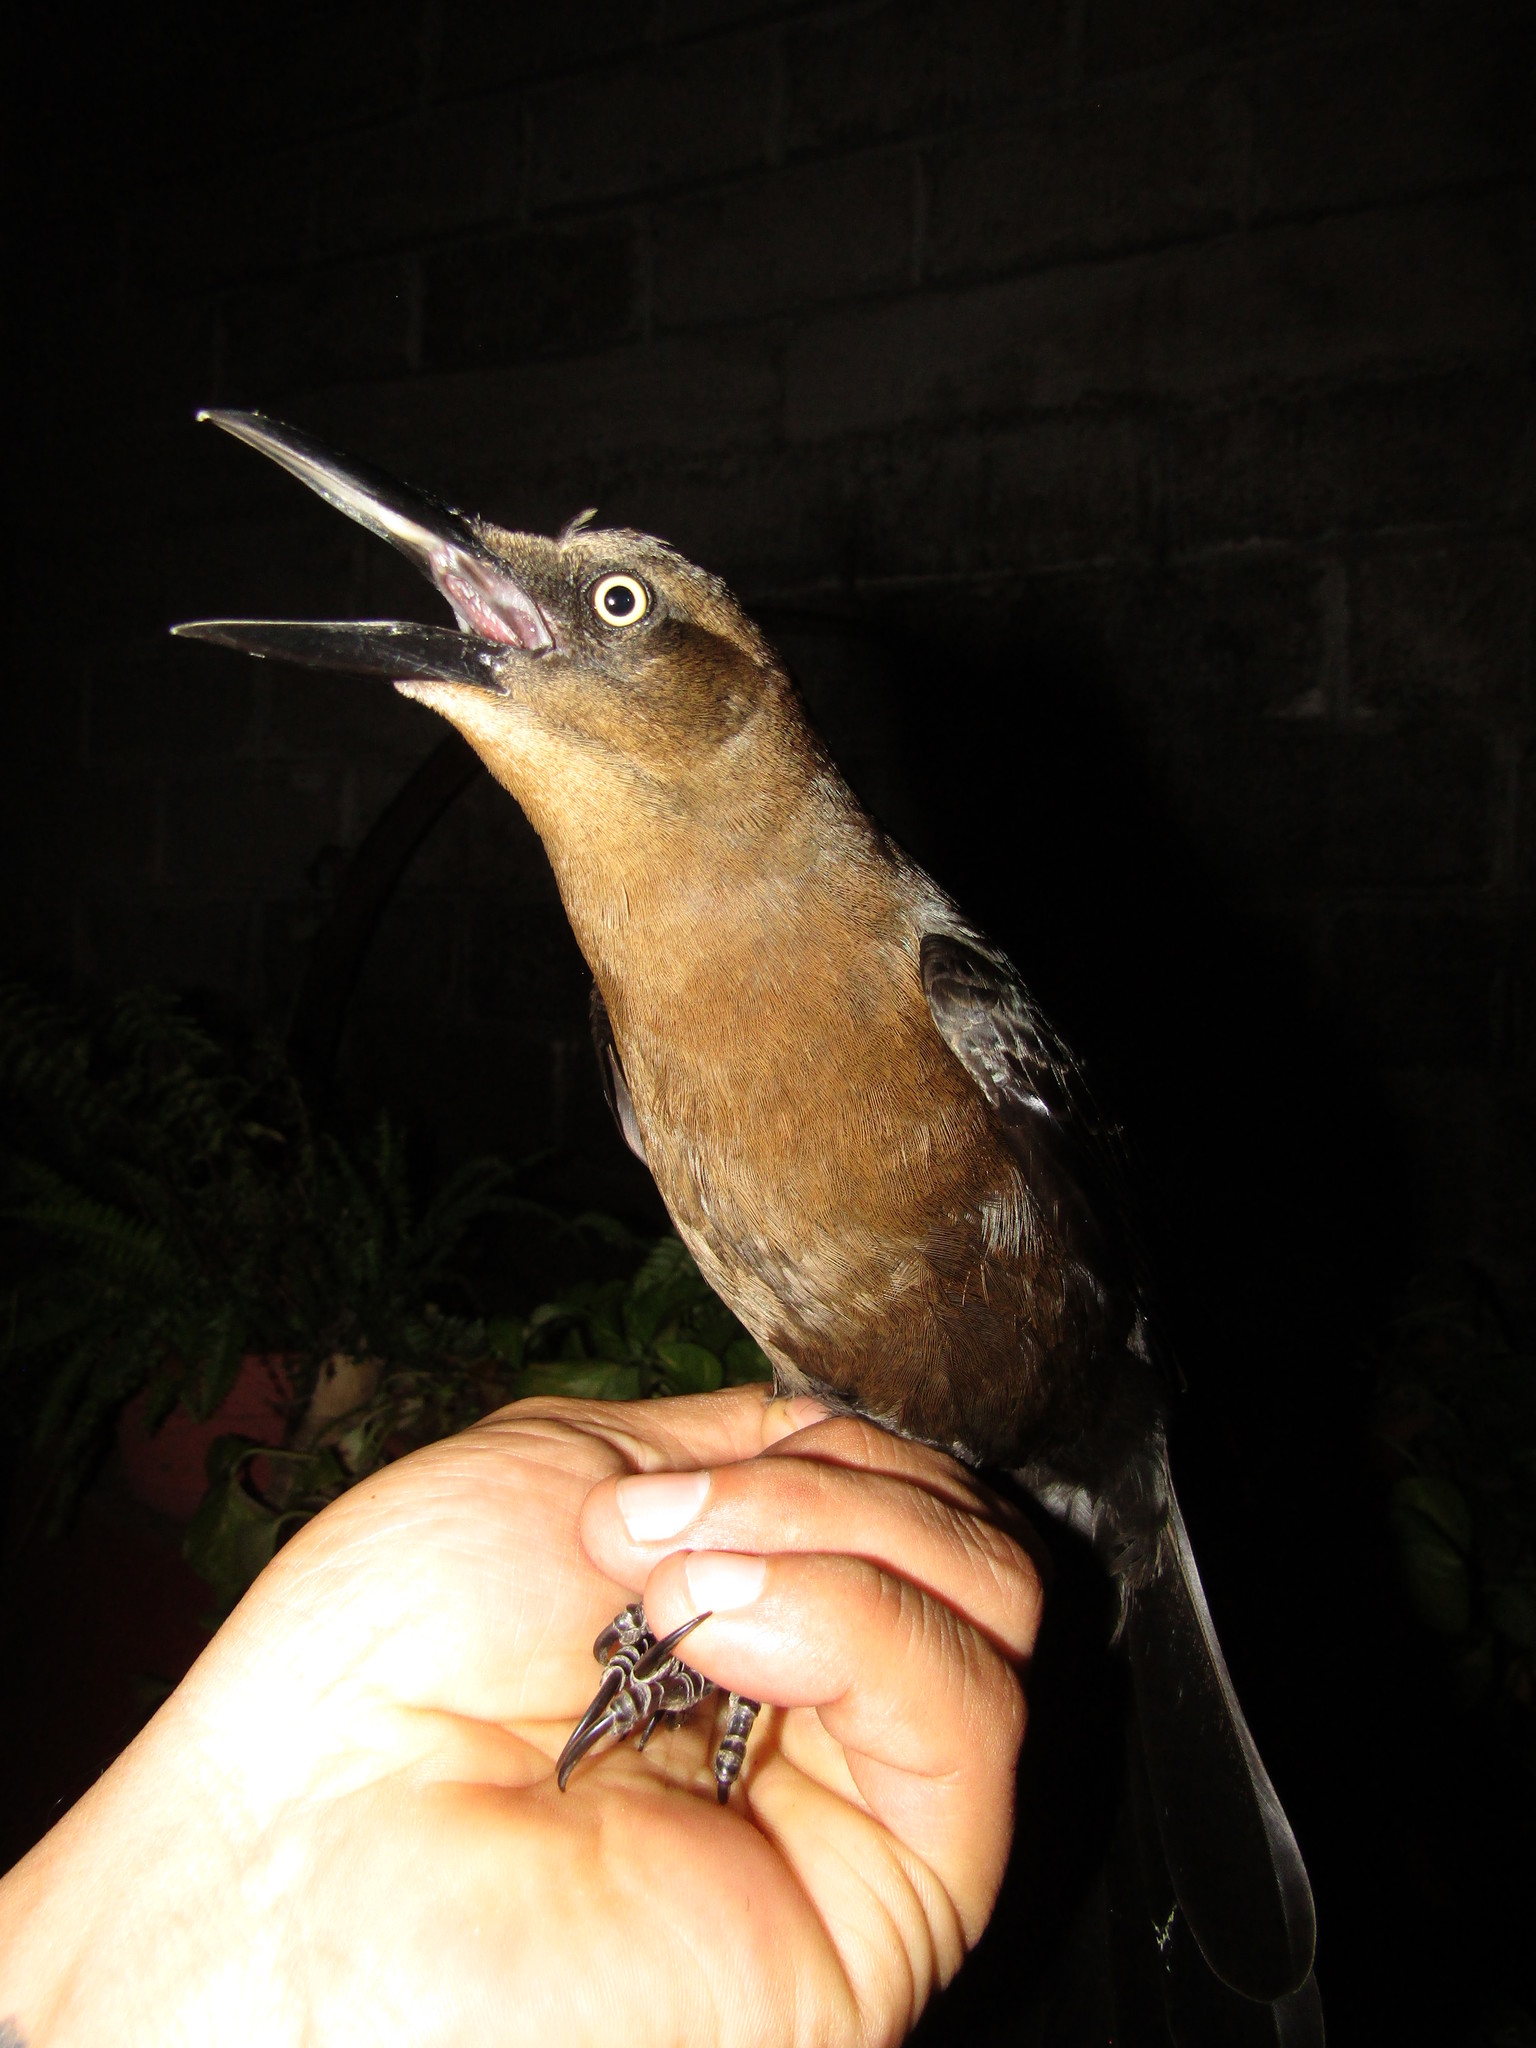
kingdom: Animalia
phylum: Chordata
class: Aves
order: Passeriformes
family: Icteridae
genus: Quiscalus
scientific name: Quiscalus mexicanus
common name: Great-tailed grackle
